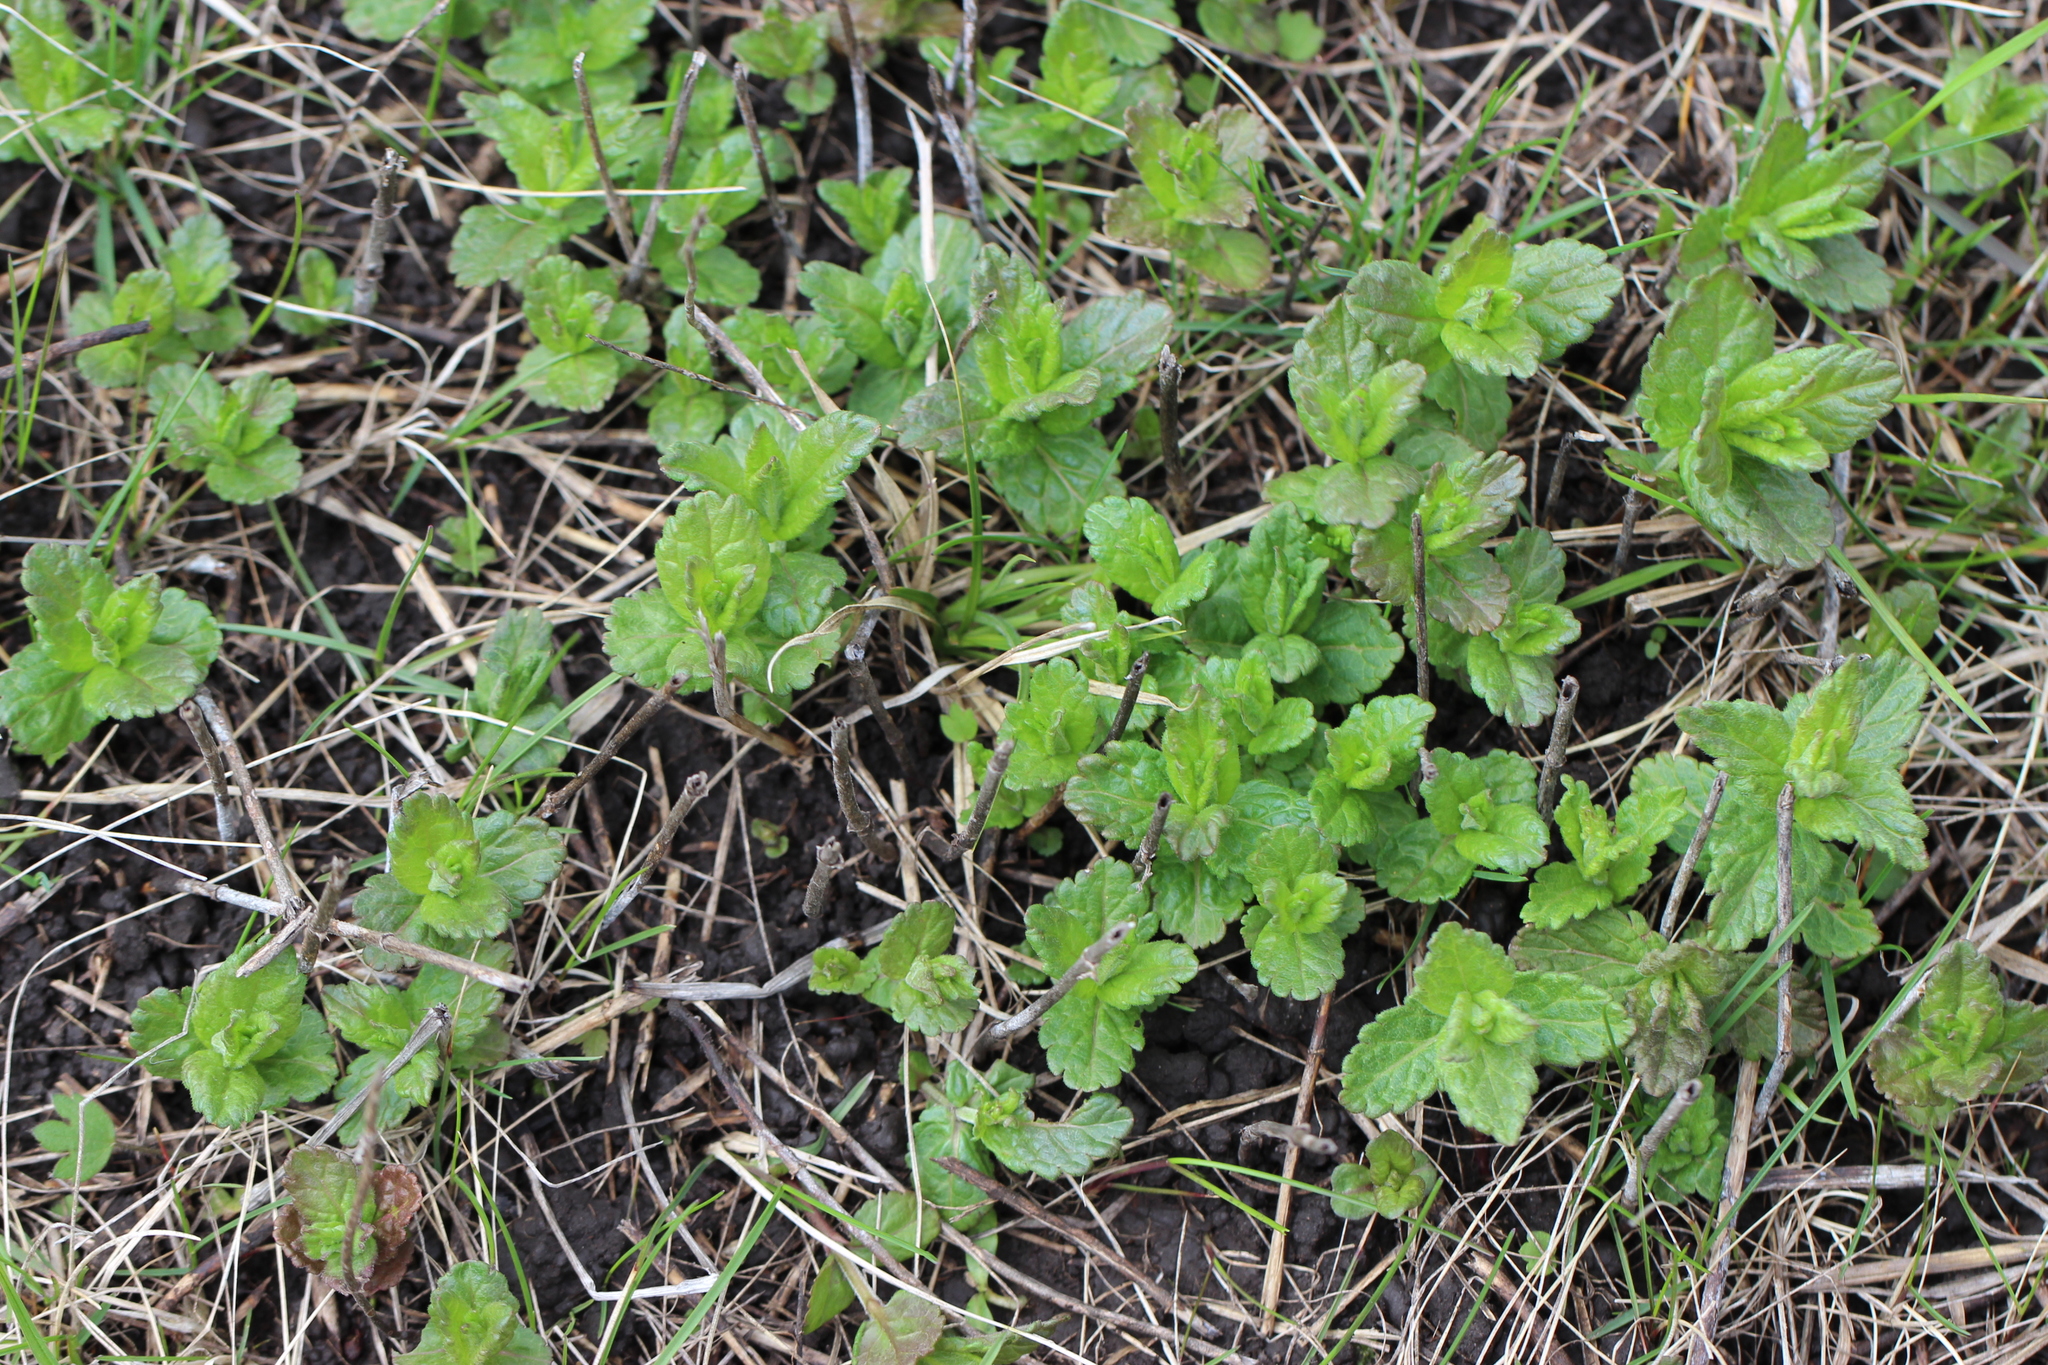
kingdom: Plantae
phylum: Tracheophyta
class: Magnoliopsida
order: Lamiales
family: Plantaginaceae
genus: Veronica
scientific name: Veronica chamaedrys
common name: Germander speedwell
